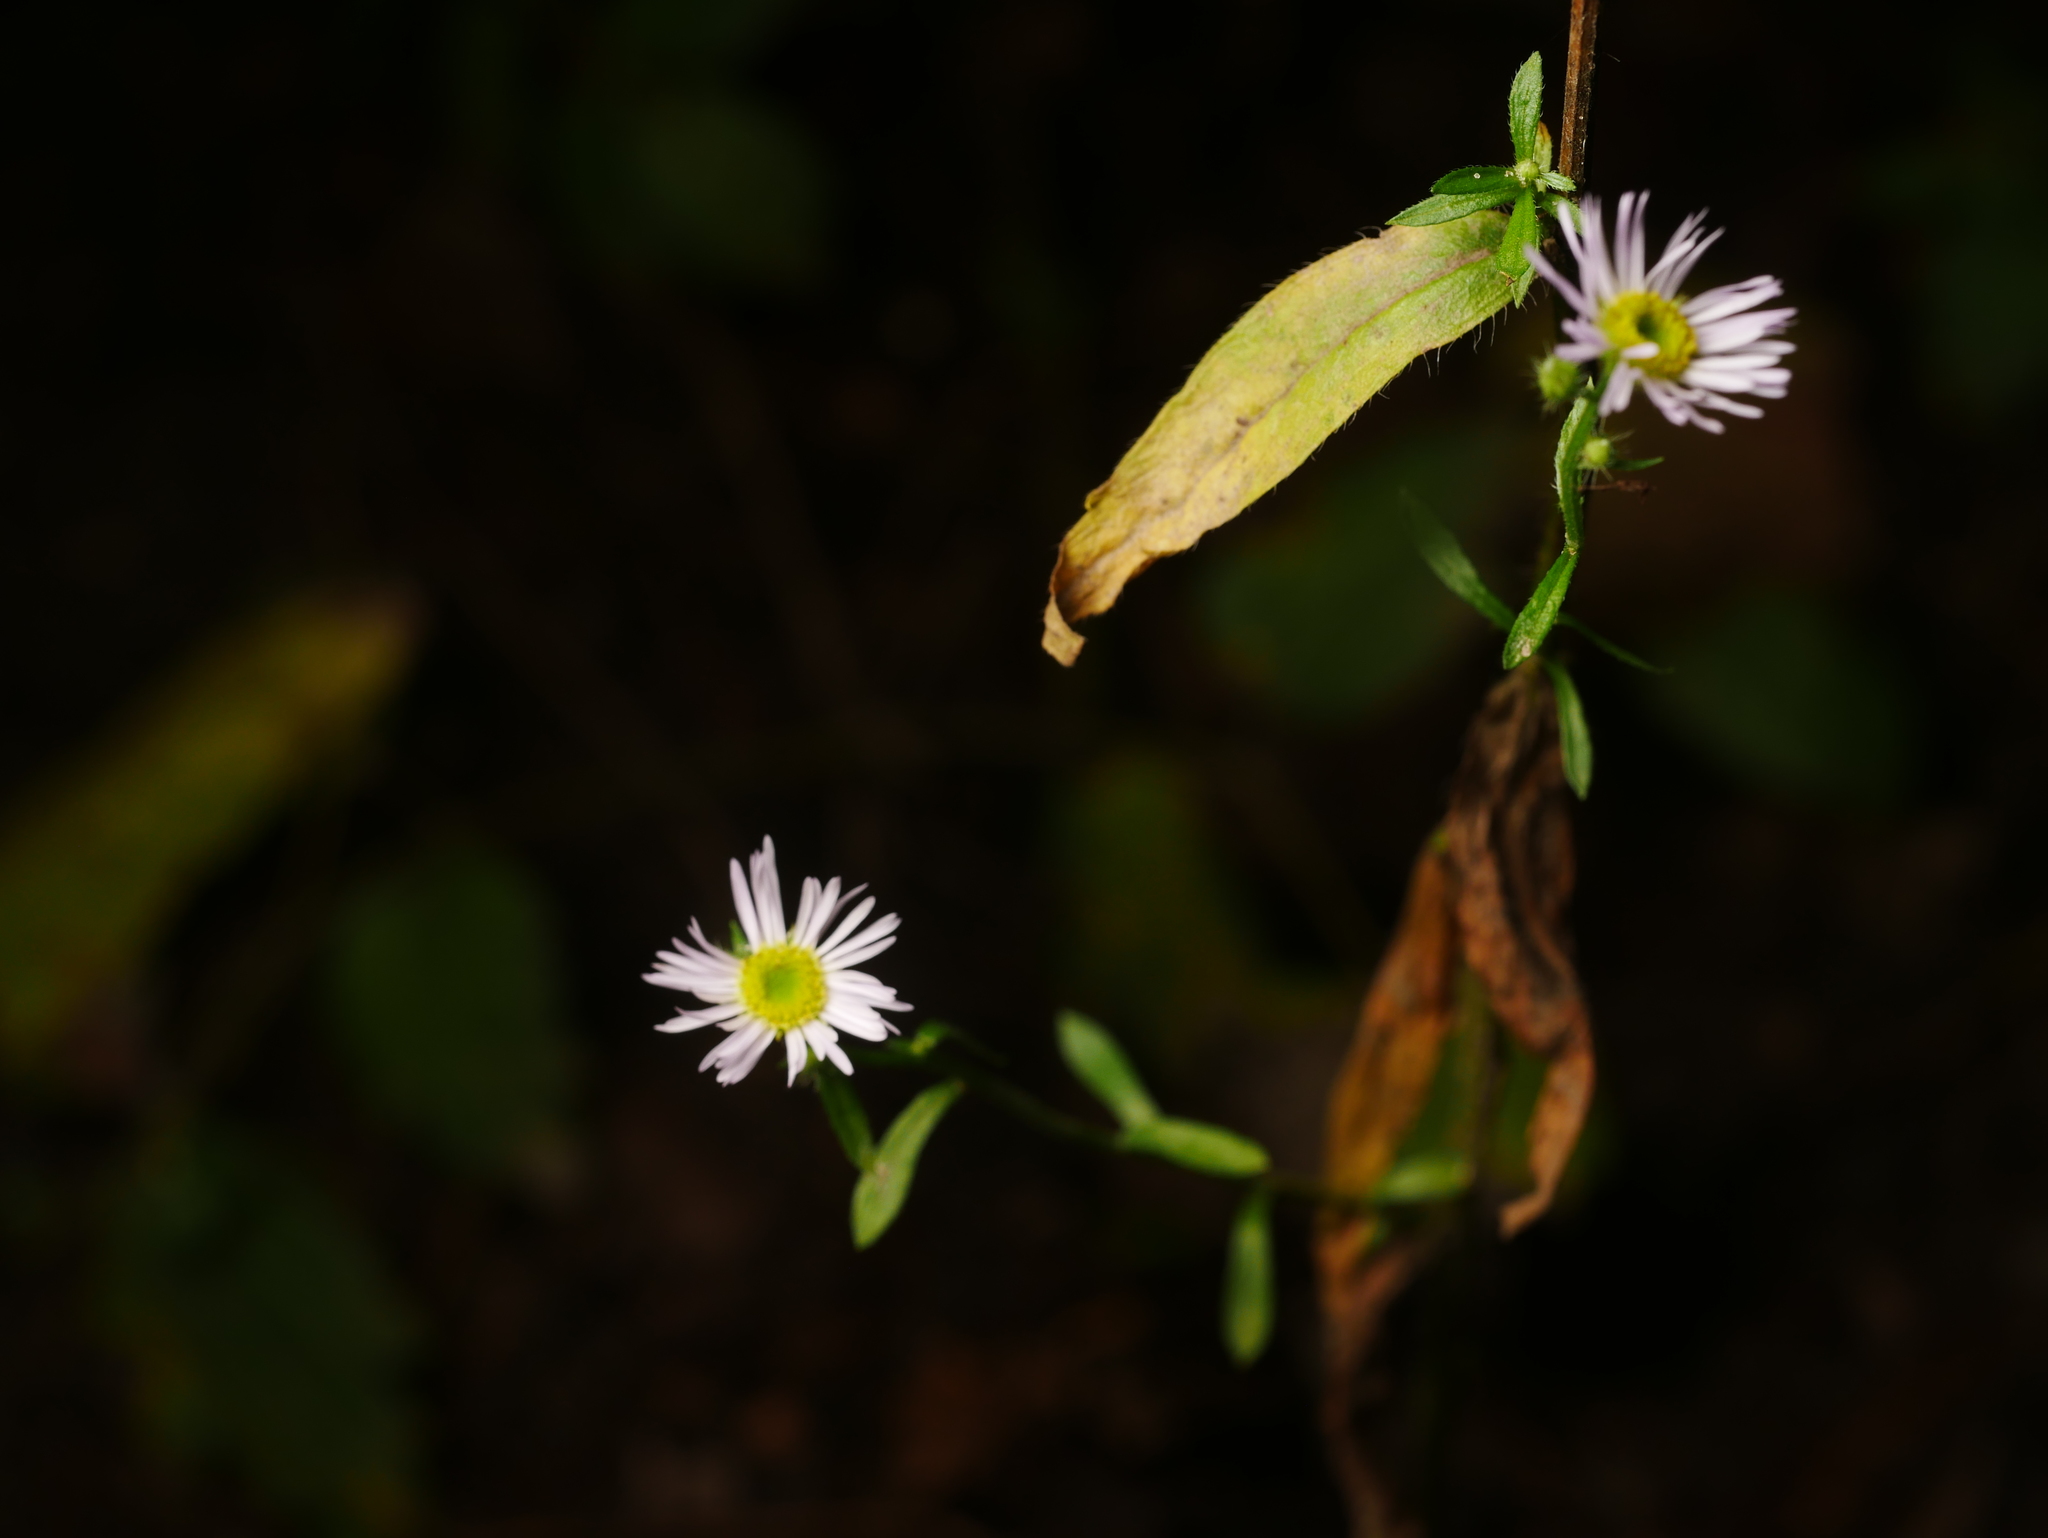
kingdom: Plantae
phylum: Tracheophyta
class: Magnoliopsida
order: Asterales
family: Asteraceae
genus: Erigeron
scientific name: Erigeron annuus
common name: Tall fleabane
